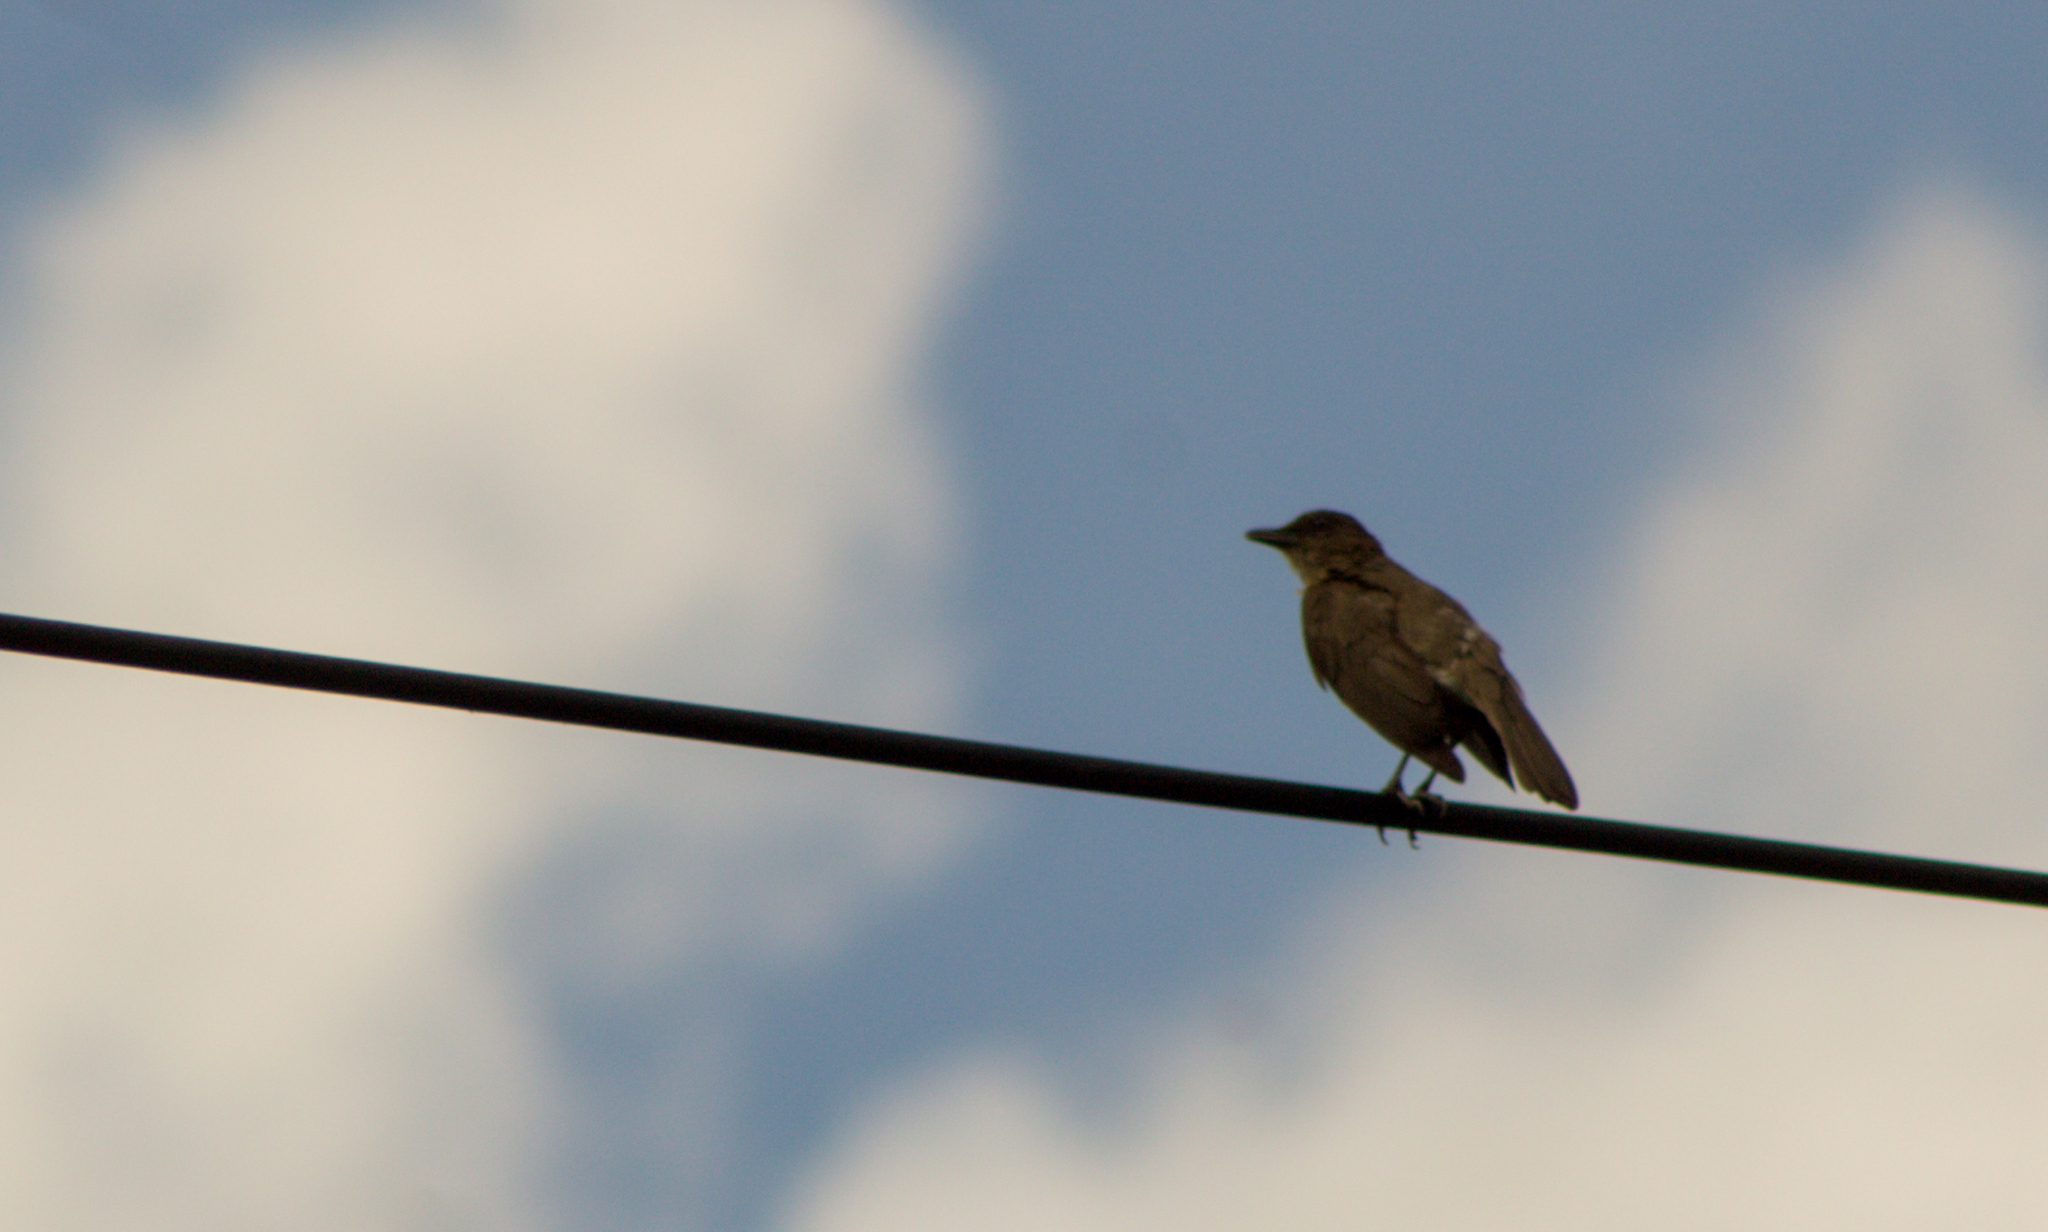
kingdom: Animalia
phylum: Chordata
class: Aves
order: Passeriformes
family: Turdidae
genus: Turdus
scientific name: Turdus ignobilis
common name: Black-billed thrush
